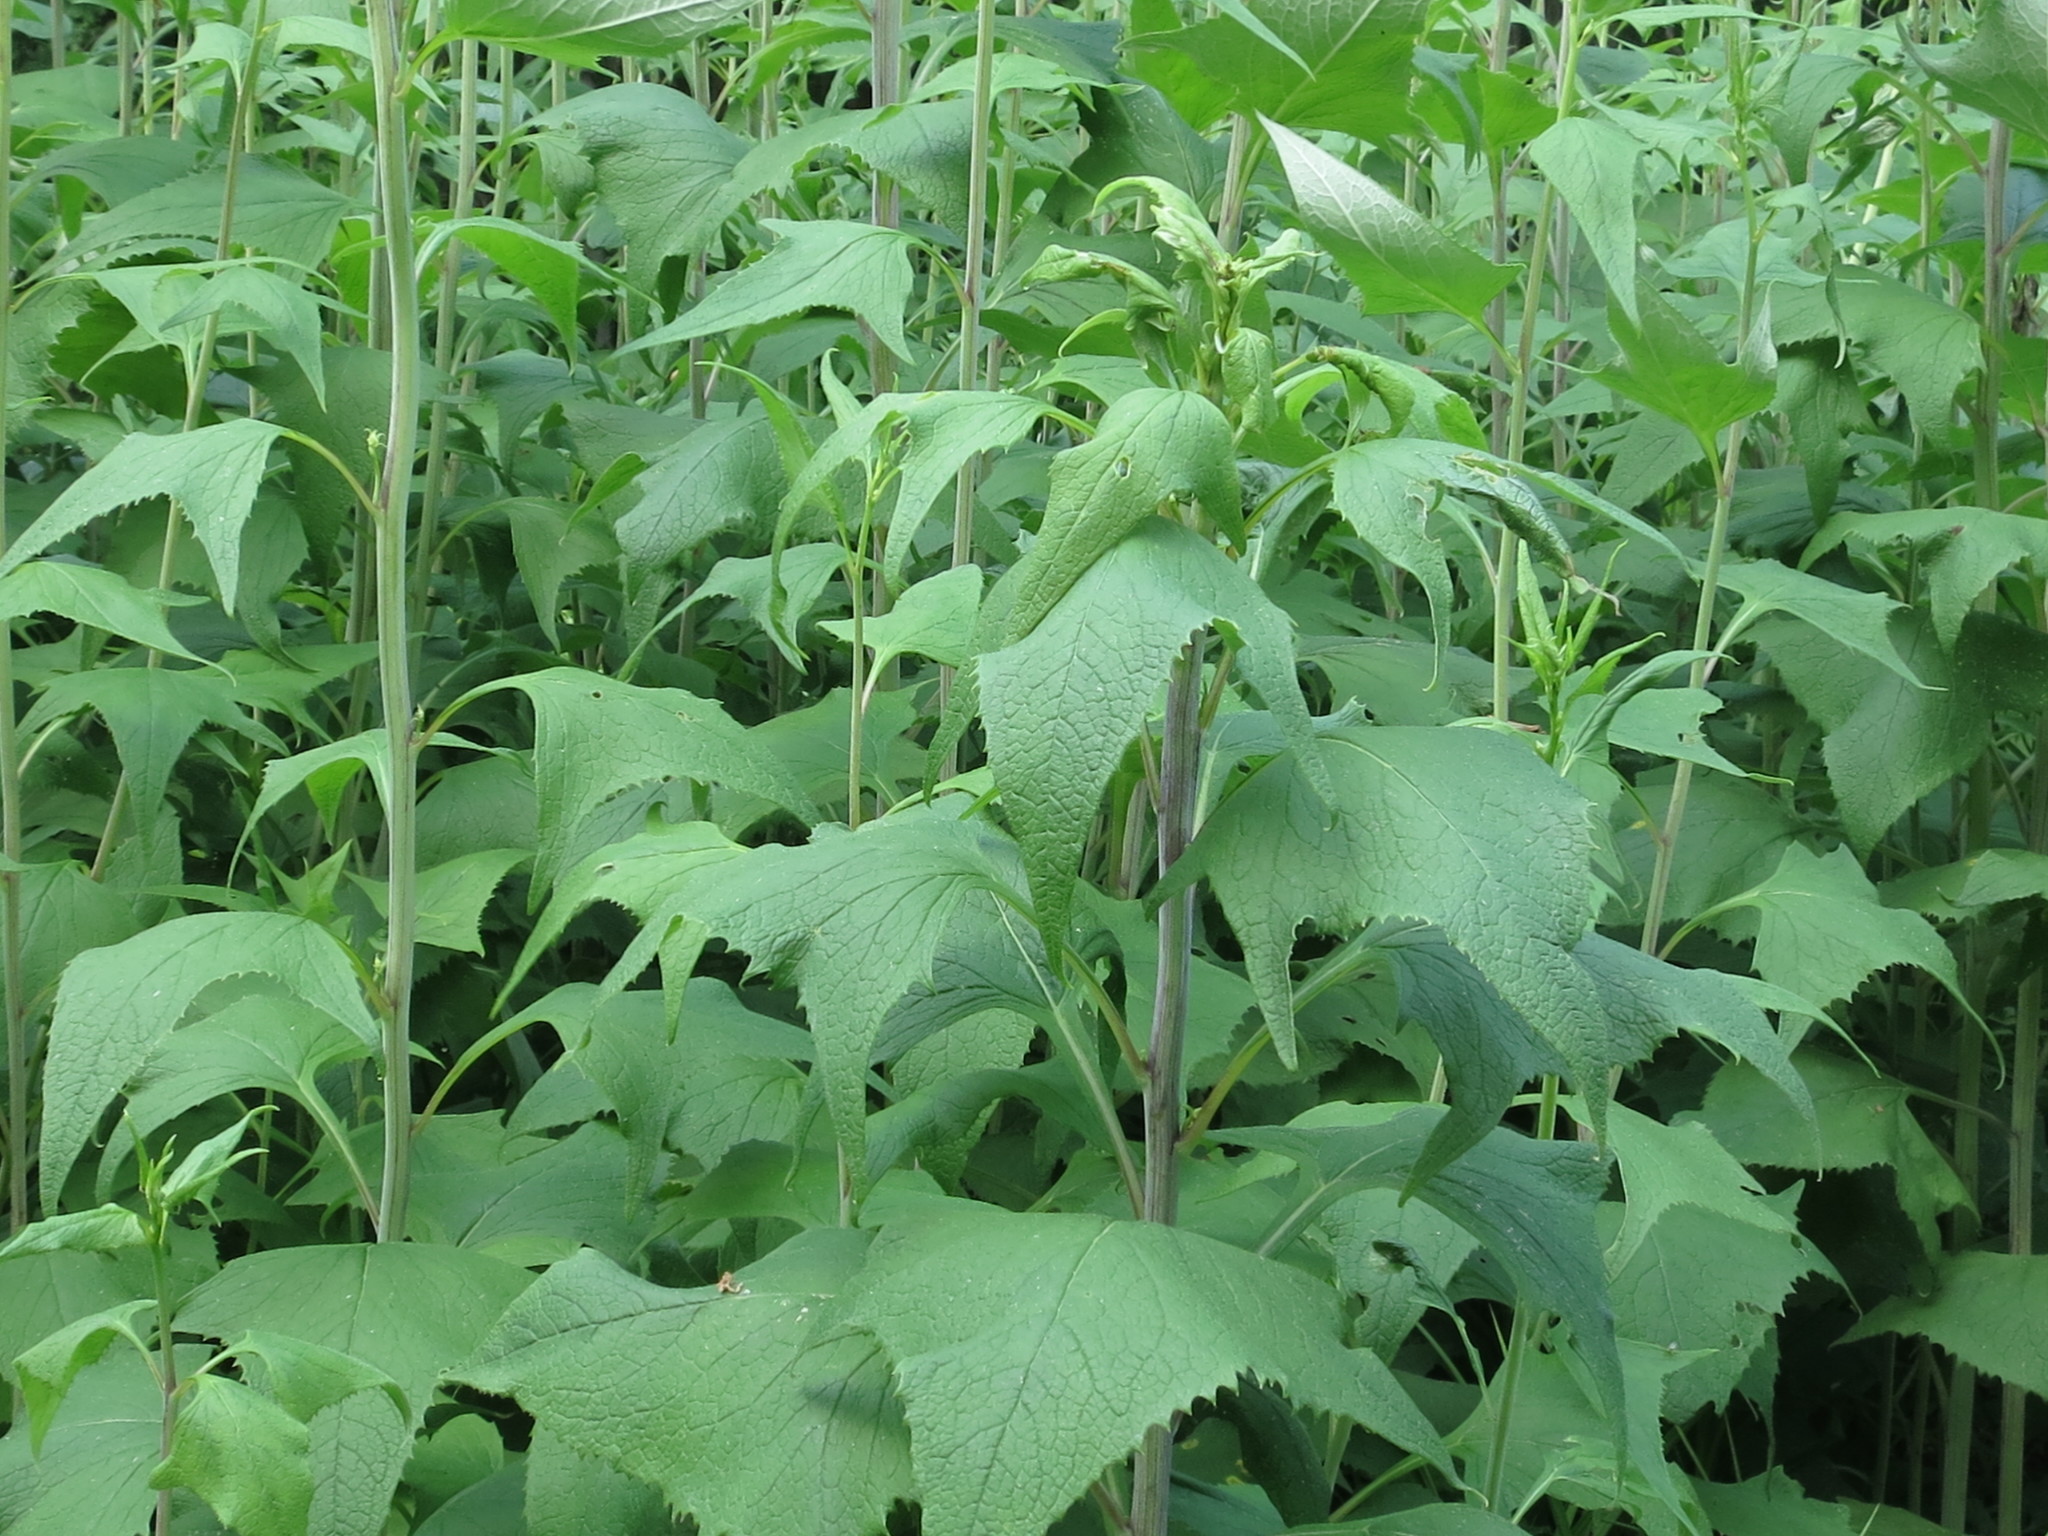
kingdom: Plantae
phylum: Tracheophyta
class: Magnoliopsida
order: Asterales
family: Asteraceae
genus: Parasenecio
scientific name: Parasenecio hastatus
